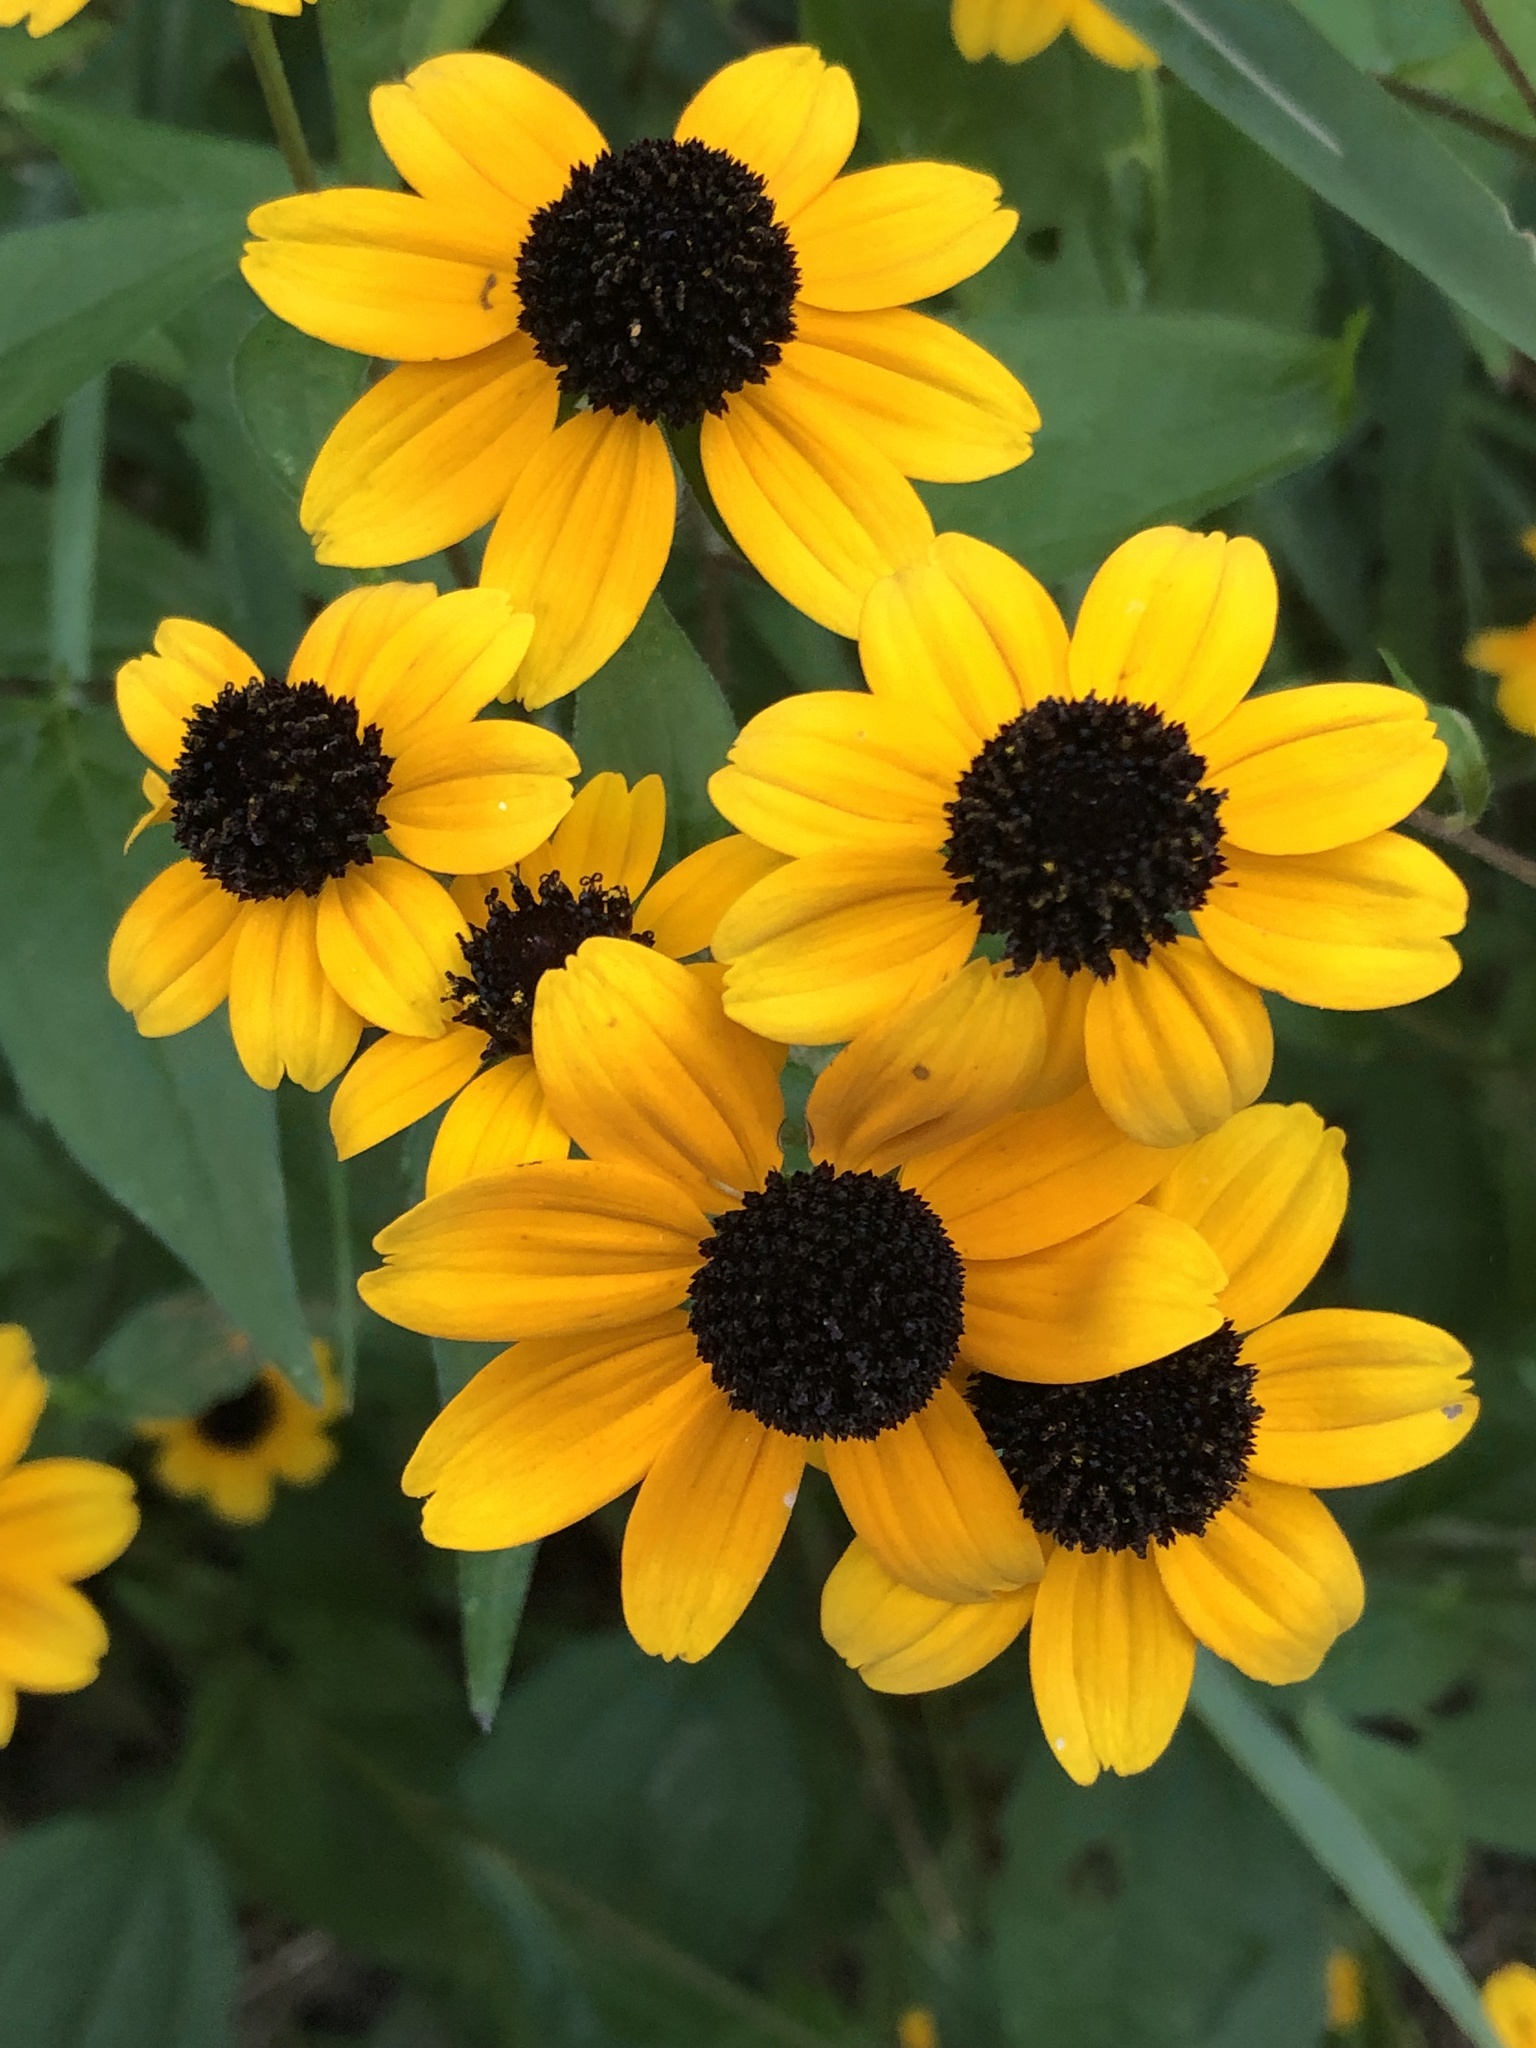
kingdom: Plantae
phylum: Tracheophyta
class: Magnoliopsida
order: Asterales
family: Asteraceae
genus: Rudbeckia
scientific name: Rudbeckia triloba
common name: Thin-leaved coneflower
